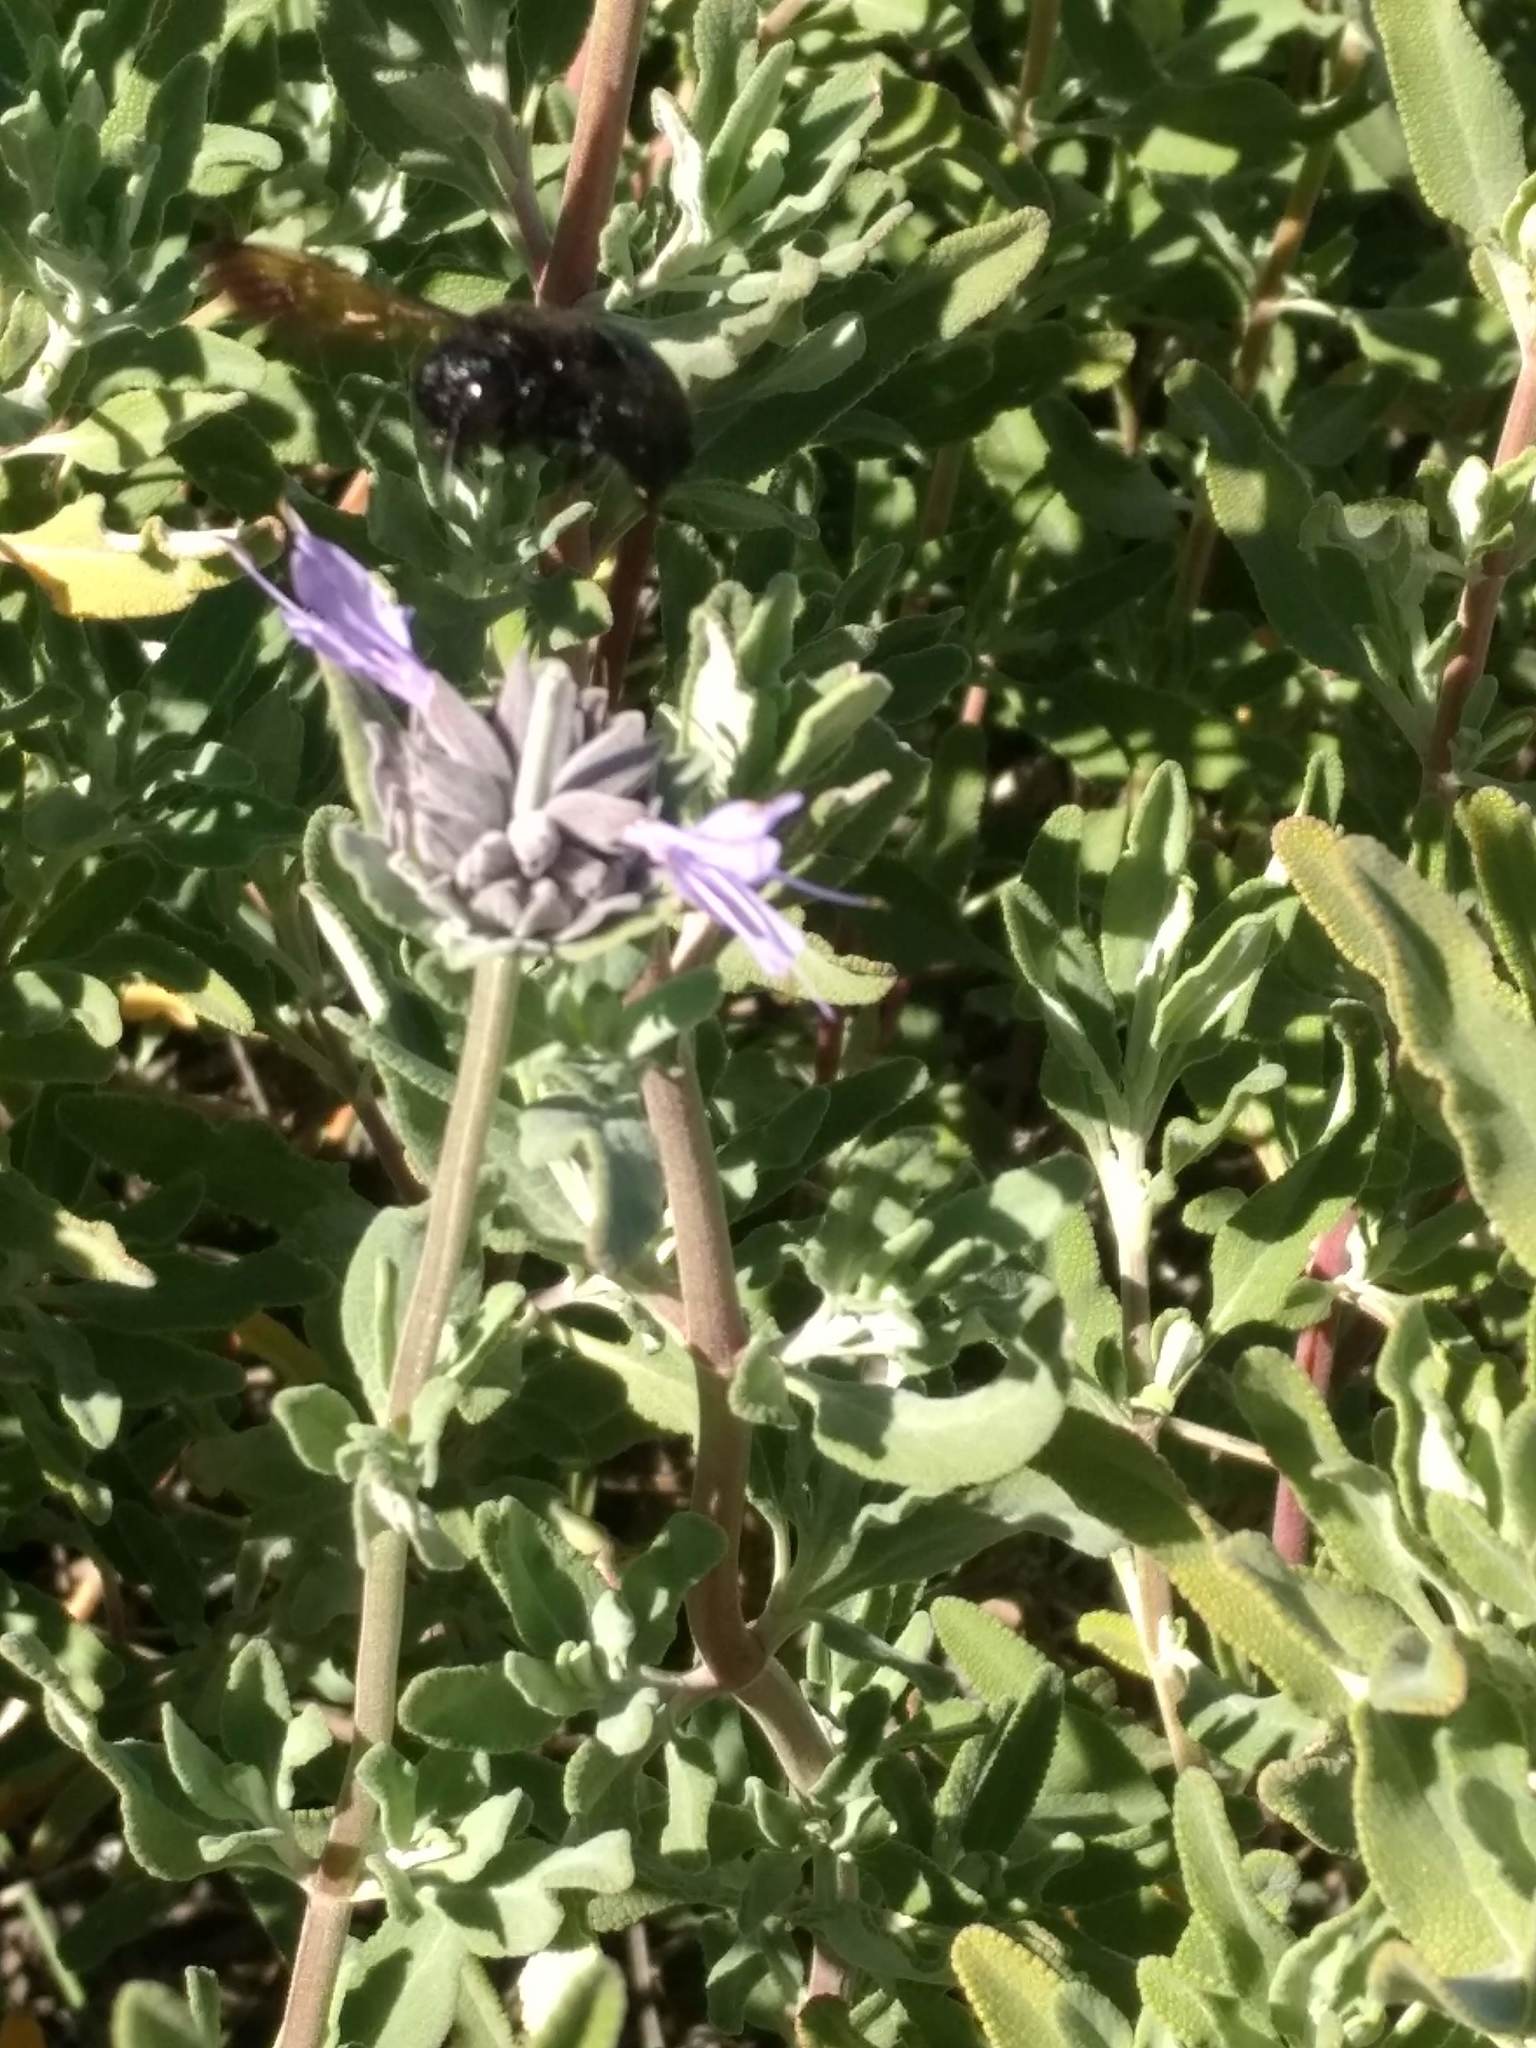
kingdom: Animalia
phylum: Arthropoda
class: Insecta
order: Hymenoptera
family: Apidae
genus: Xylocopa
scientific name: Xylocopa sonorina
